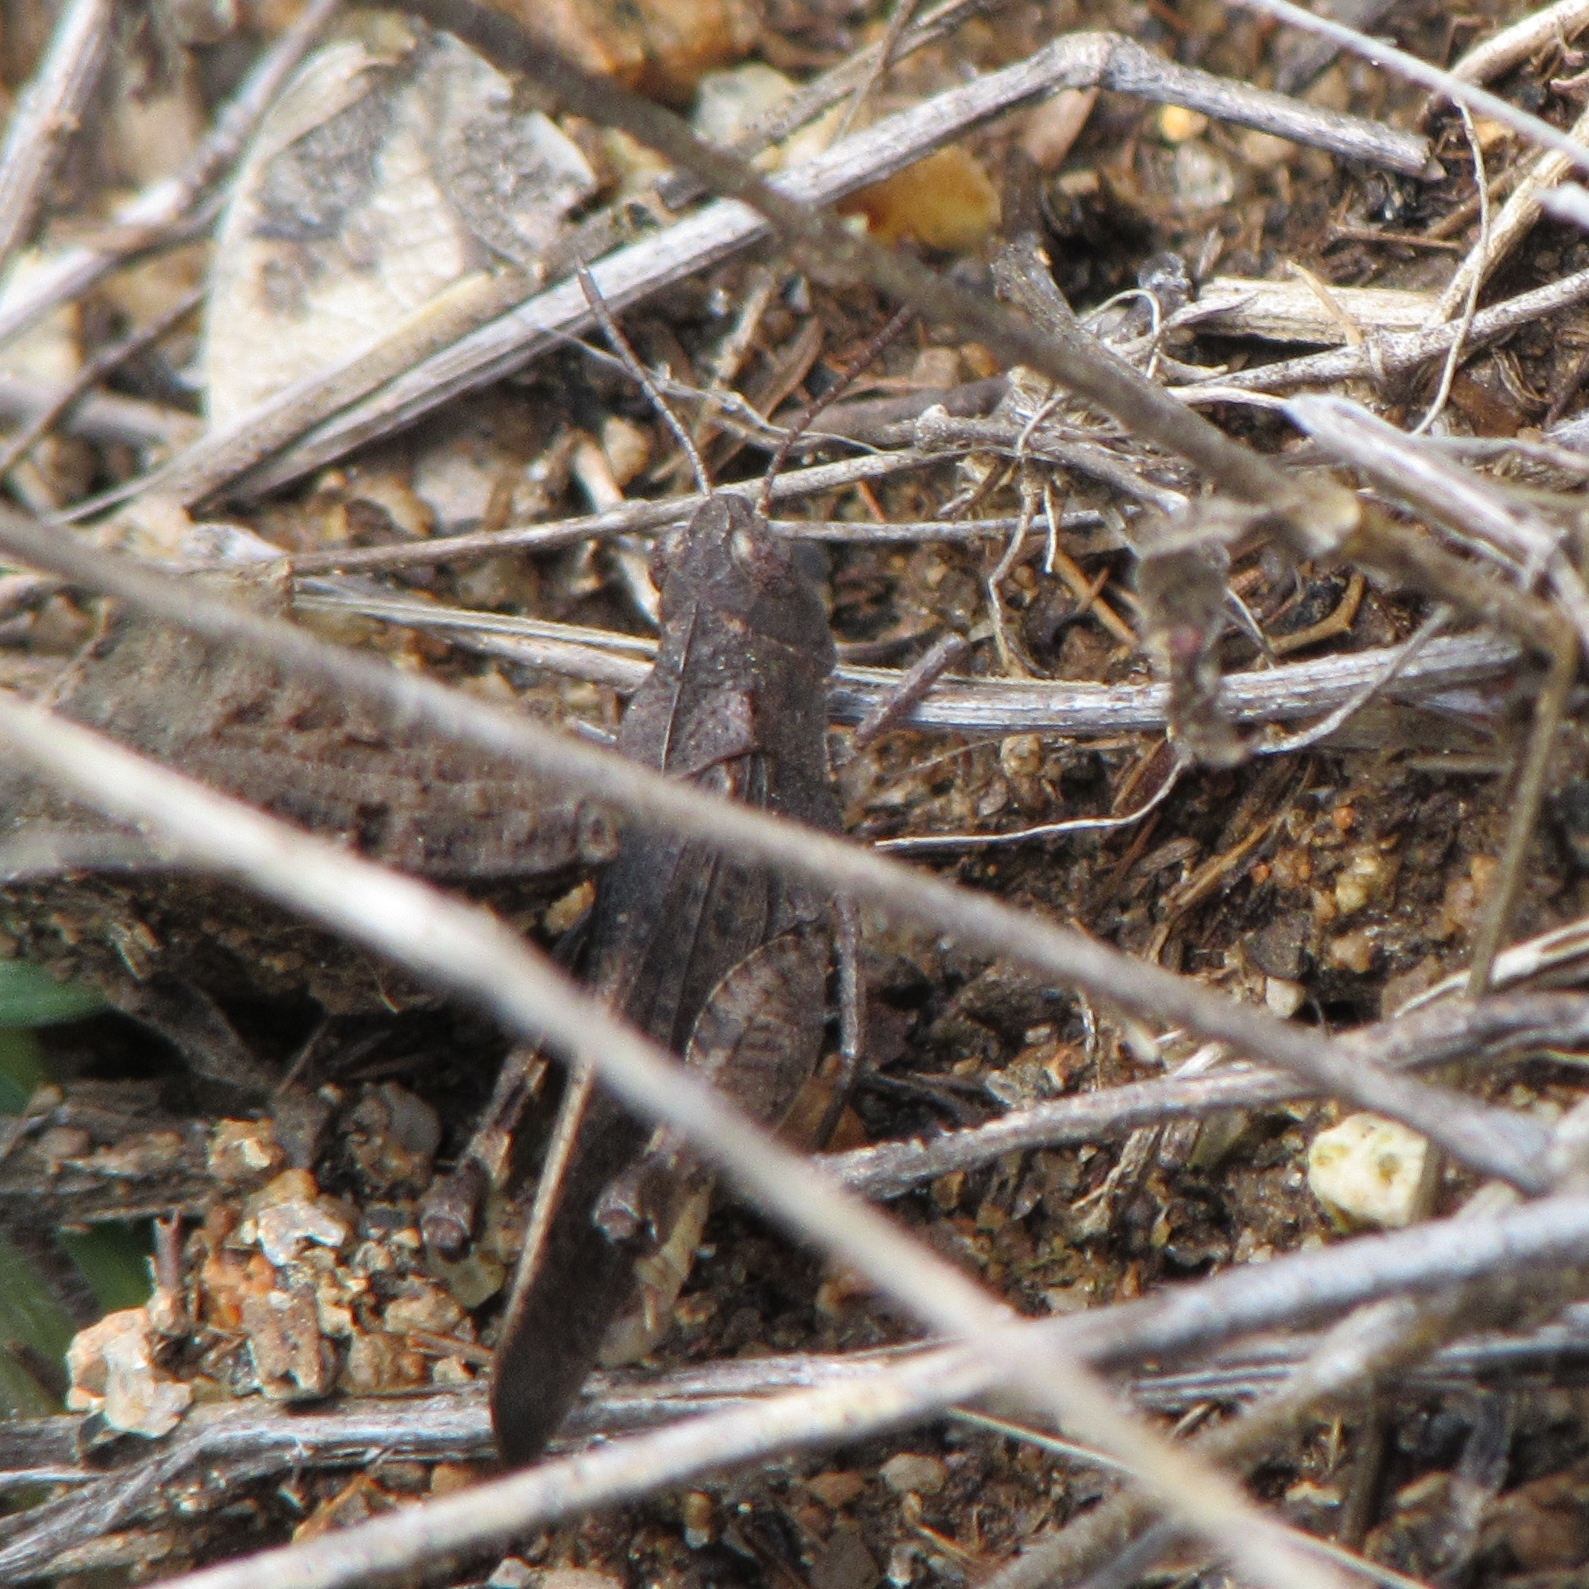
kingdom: Animalia
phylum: Arthropoda
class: Insecta
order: Orthoptera
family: Acrididae
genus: Arphia
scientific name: Arphia behrensi
